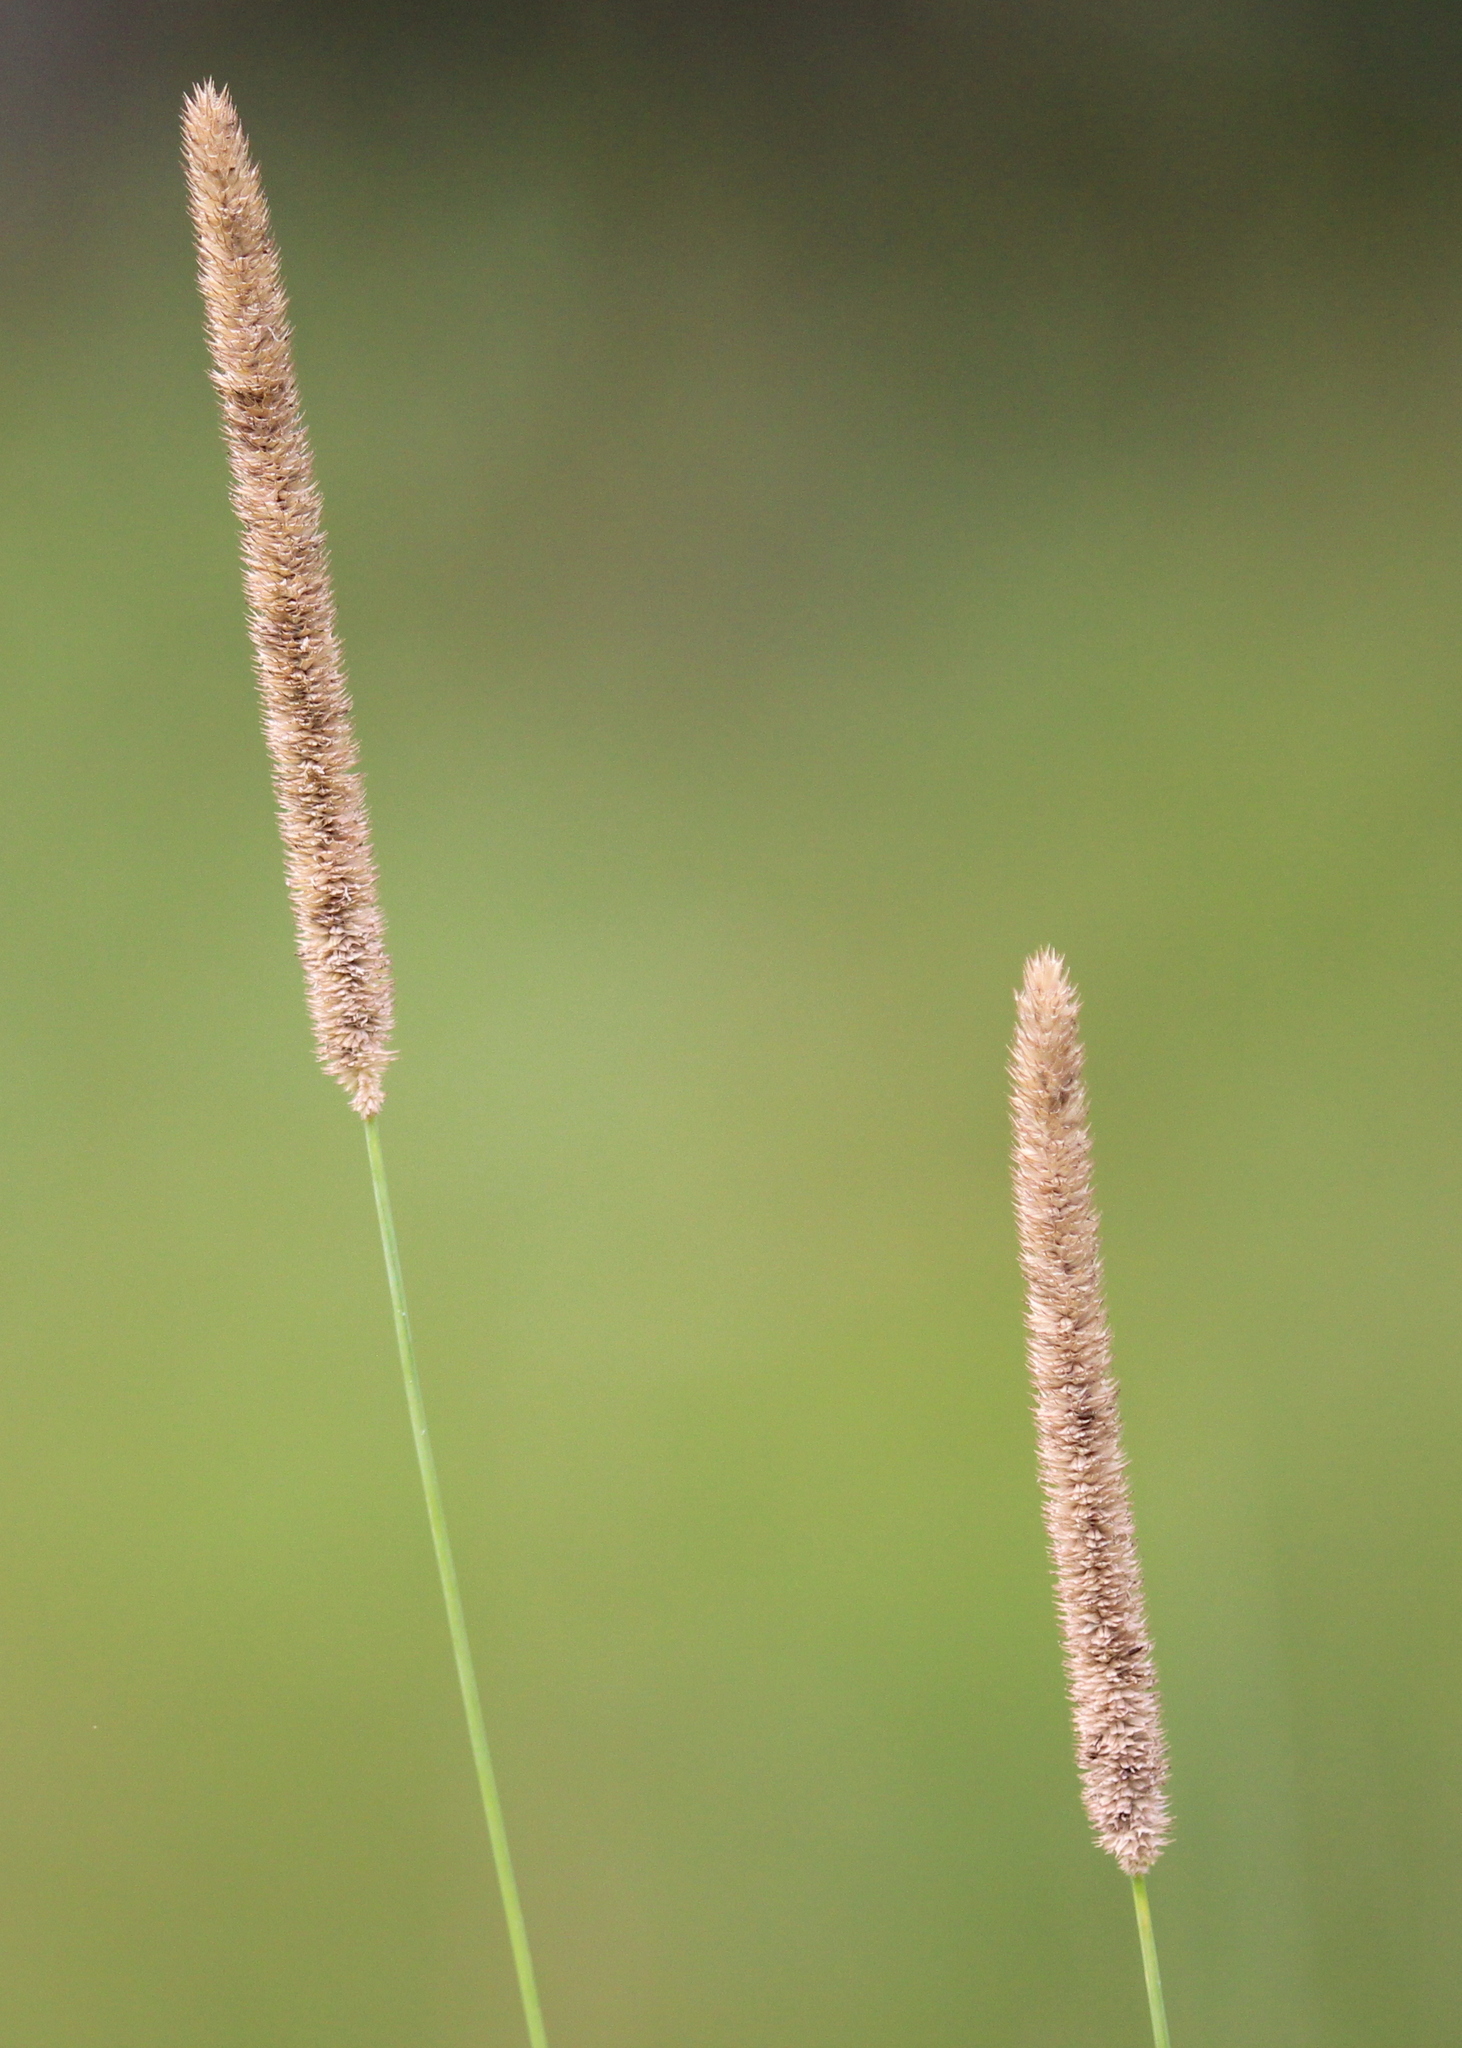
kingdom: Plantae
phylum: Tracheophyta
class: Liliopsida
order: Poales
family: Poaceae
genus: Phleum
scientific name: Phleum pratense
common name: Timothy grass
